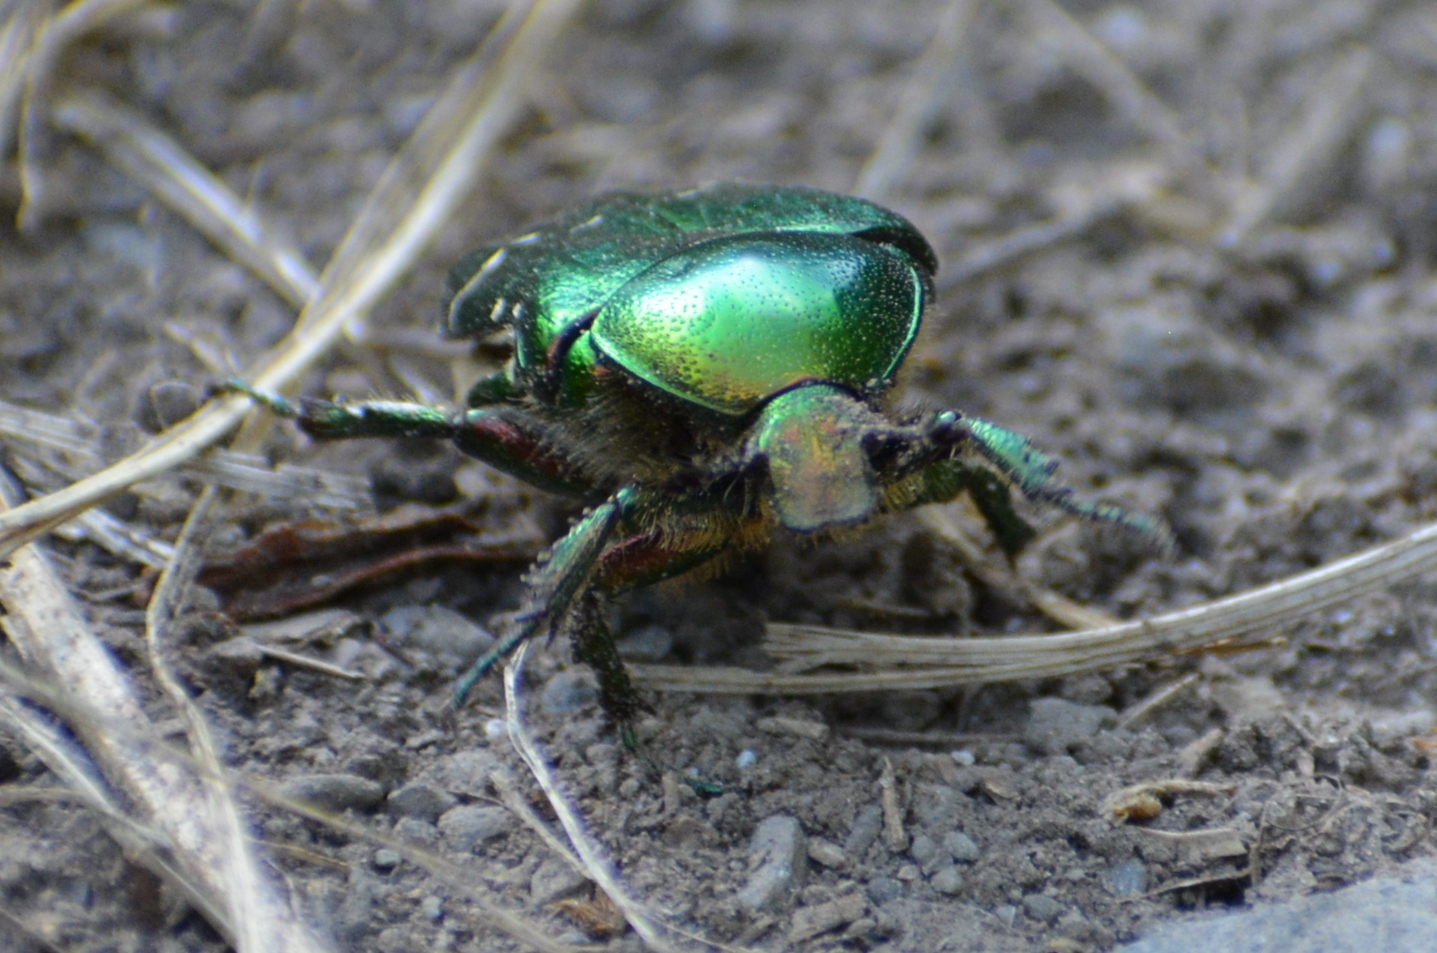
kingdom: Animalia
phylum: Arthropoda
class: Insecta
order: Coleoptera
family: Scarabaeidae
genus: Cetonia
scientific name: Cetonia aurata
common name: Rose chafer
